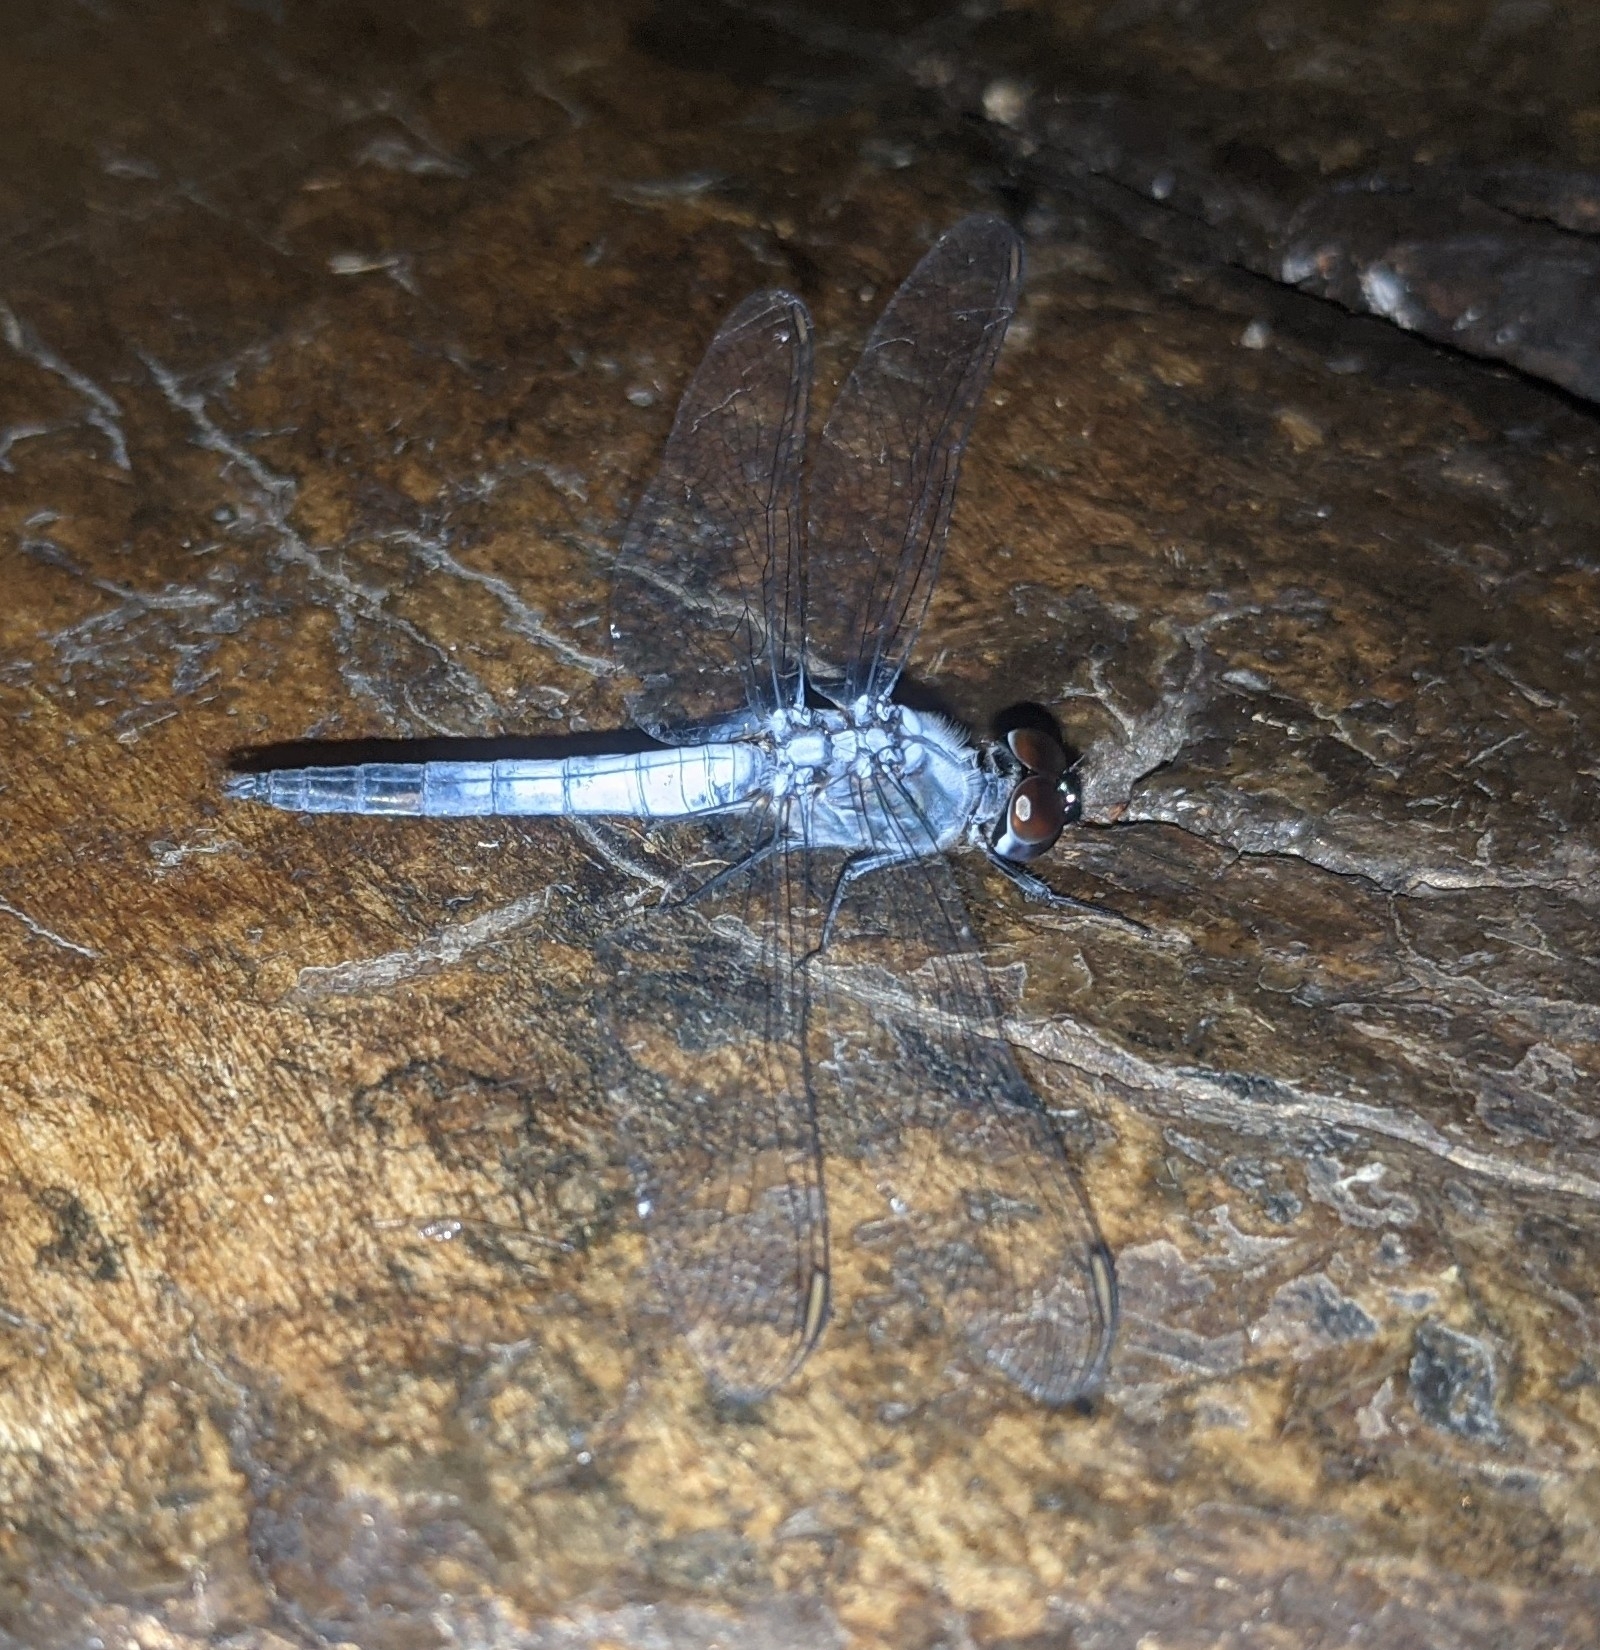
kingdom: Animalia
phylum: Arthropoda
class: Insecta
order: Odonata
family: Libellulidae
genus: Brachydiplax
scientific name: Brachydiplax sobrina
